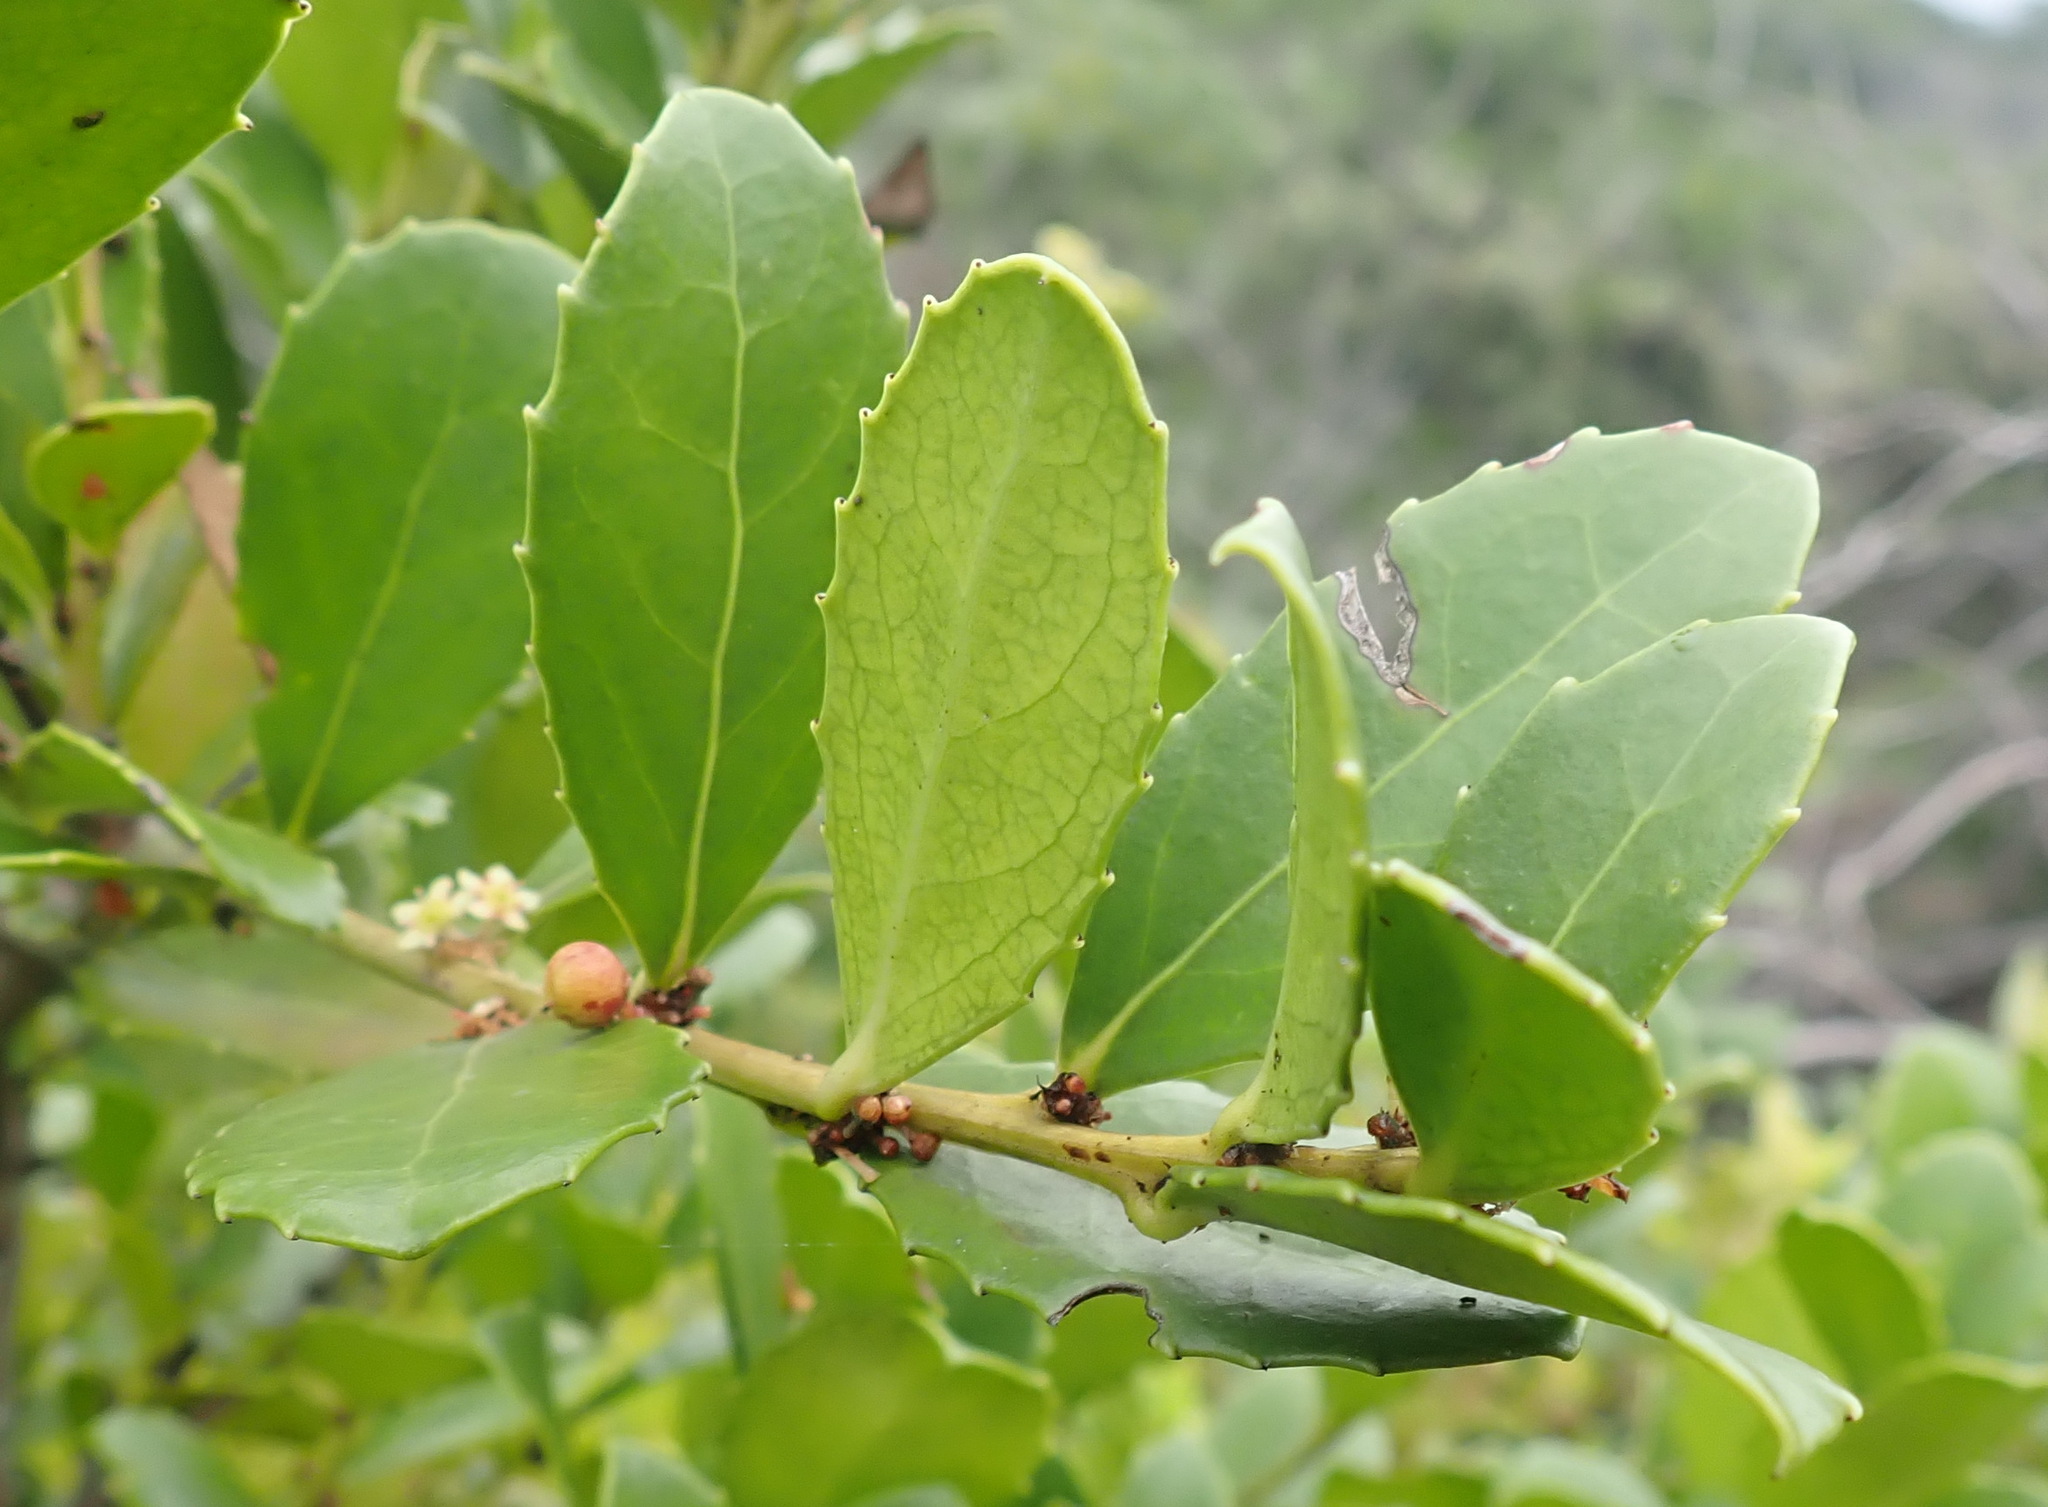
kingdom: Plantae
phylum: Tracheophyta
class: Magnoliopsida
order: Celastrales
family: Celastraceae
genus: Gymnosporia
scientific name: Gymnosporia procumbens
